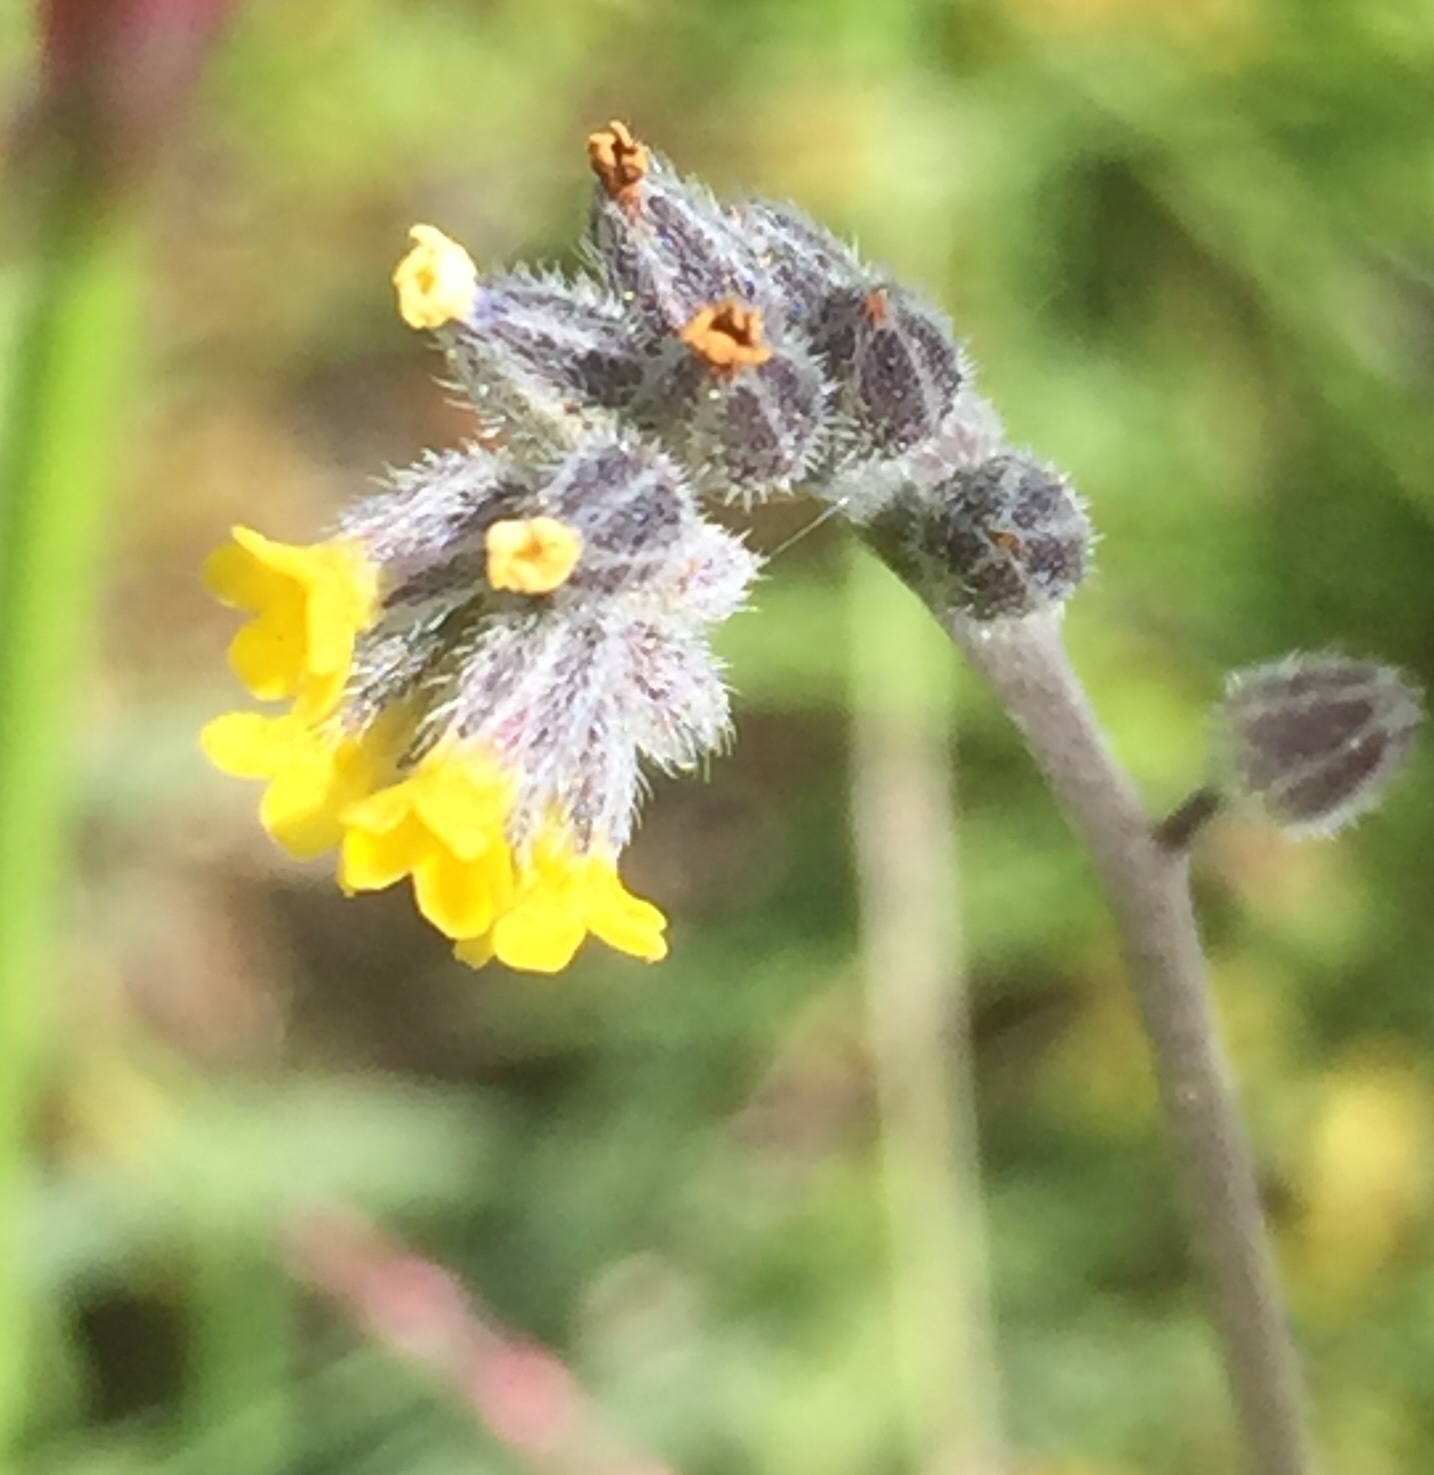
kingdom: Plantae
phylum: Tracheophyta
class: Magnoliopsida
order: Boraginales
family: Boraginaceae
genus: Myosotis
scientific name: Myosotis persoonii
